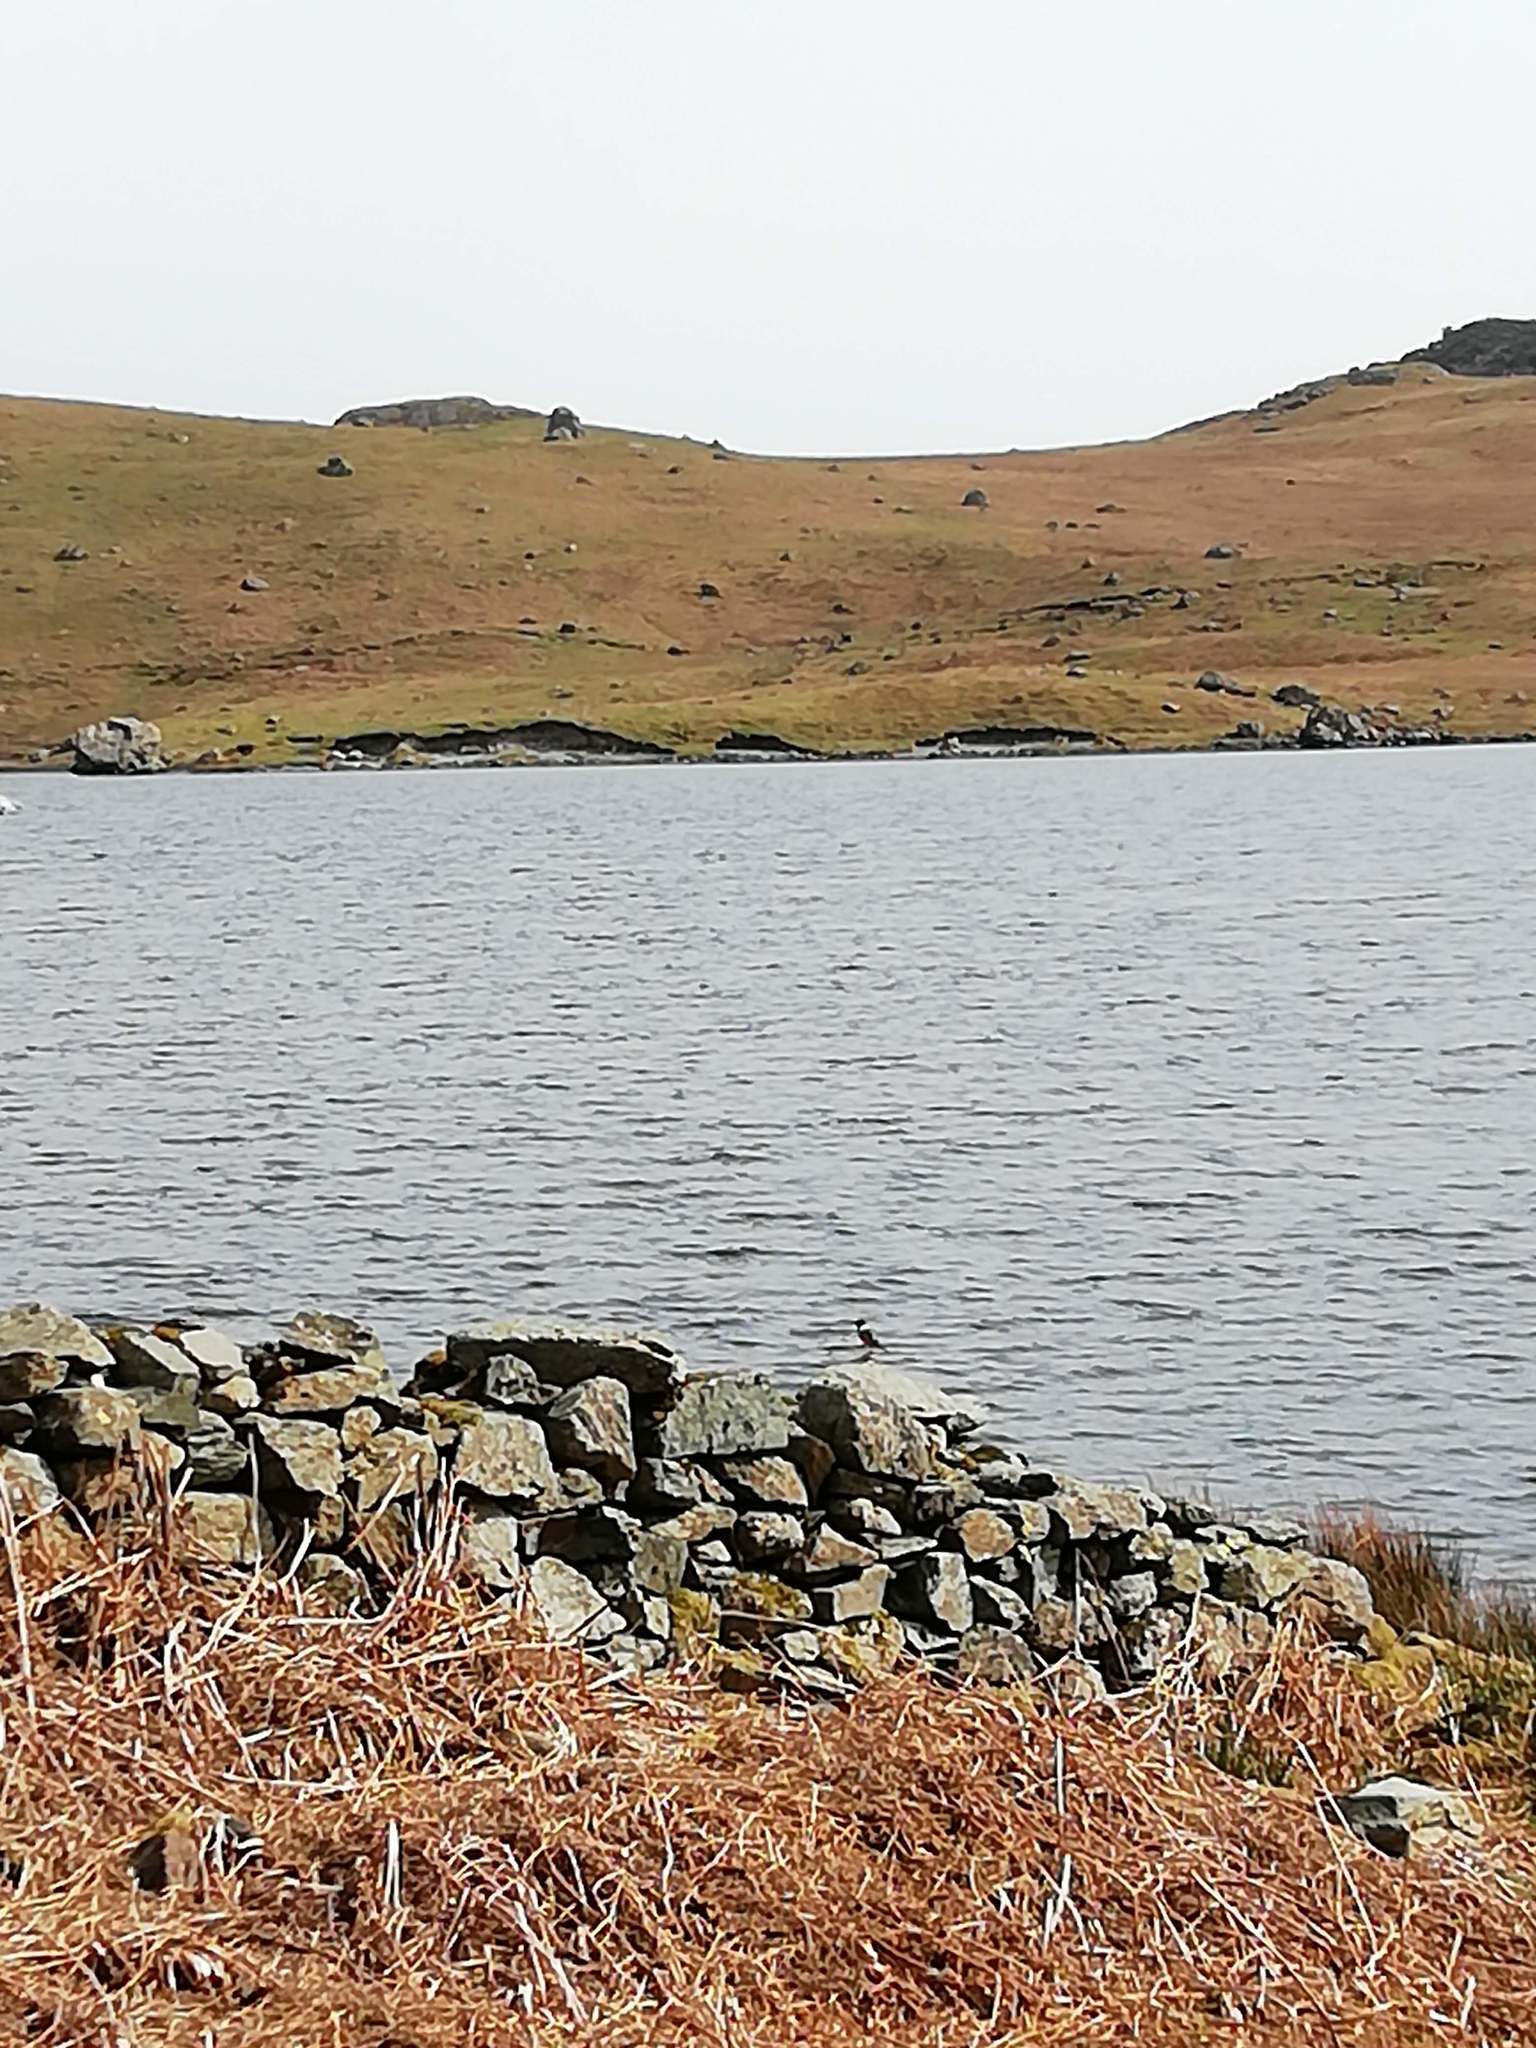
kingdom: Animalia
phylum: Chordata
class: Aves
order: Passeriformes
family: Muscicapidae
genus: Saxicola
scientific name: Saxicola rubicola
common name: European stonechat
